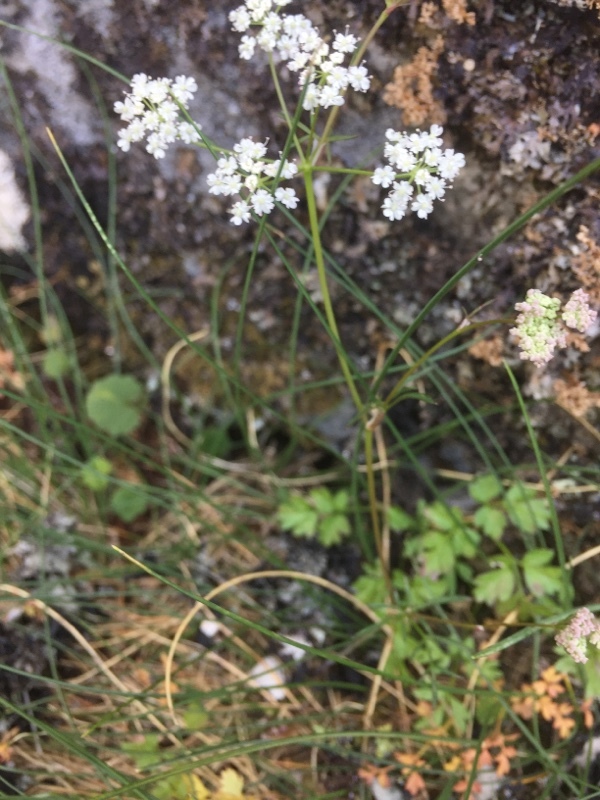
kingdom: Plantae
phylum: Tracheophyta
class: Magnoliopsida
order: Apiales
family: Apiaceae
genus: Conopodium
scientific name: Conopodium majus
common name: Pignut
